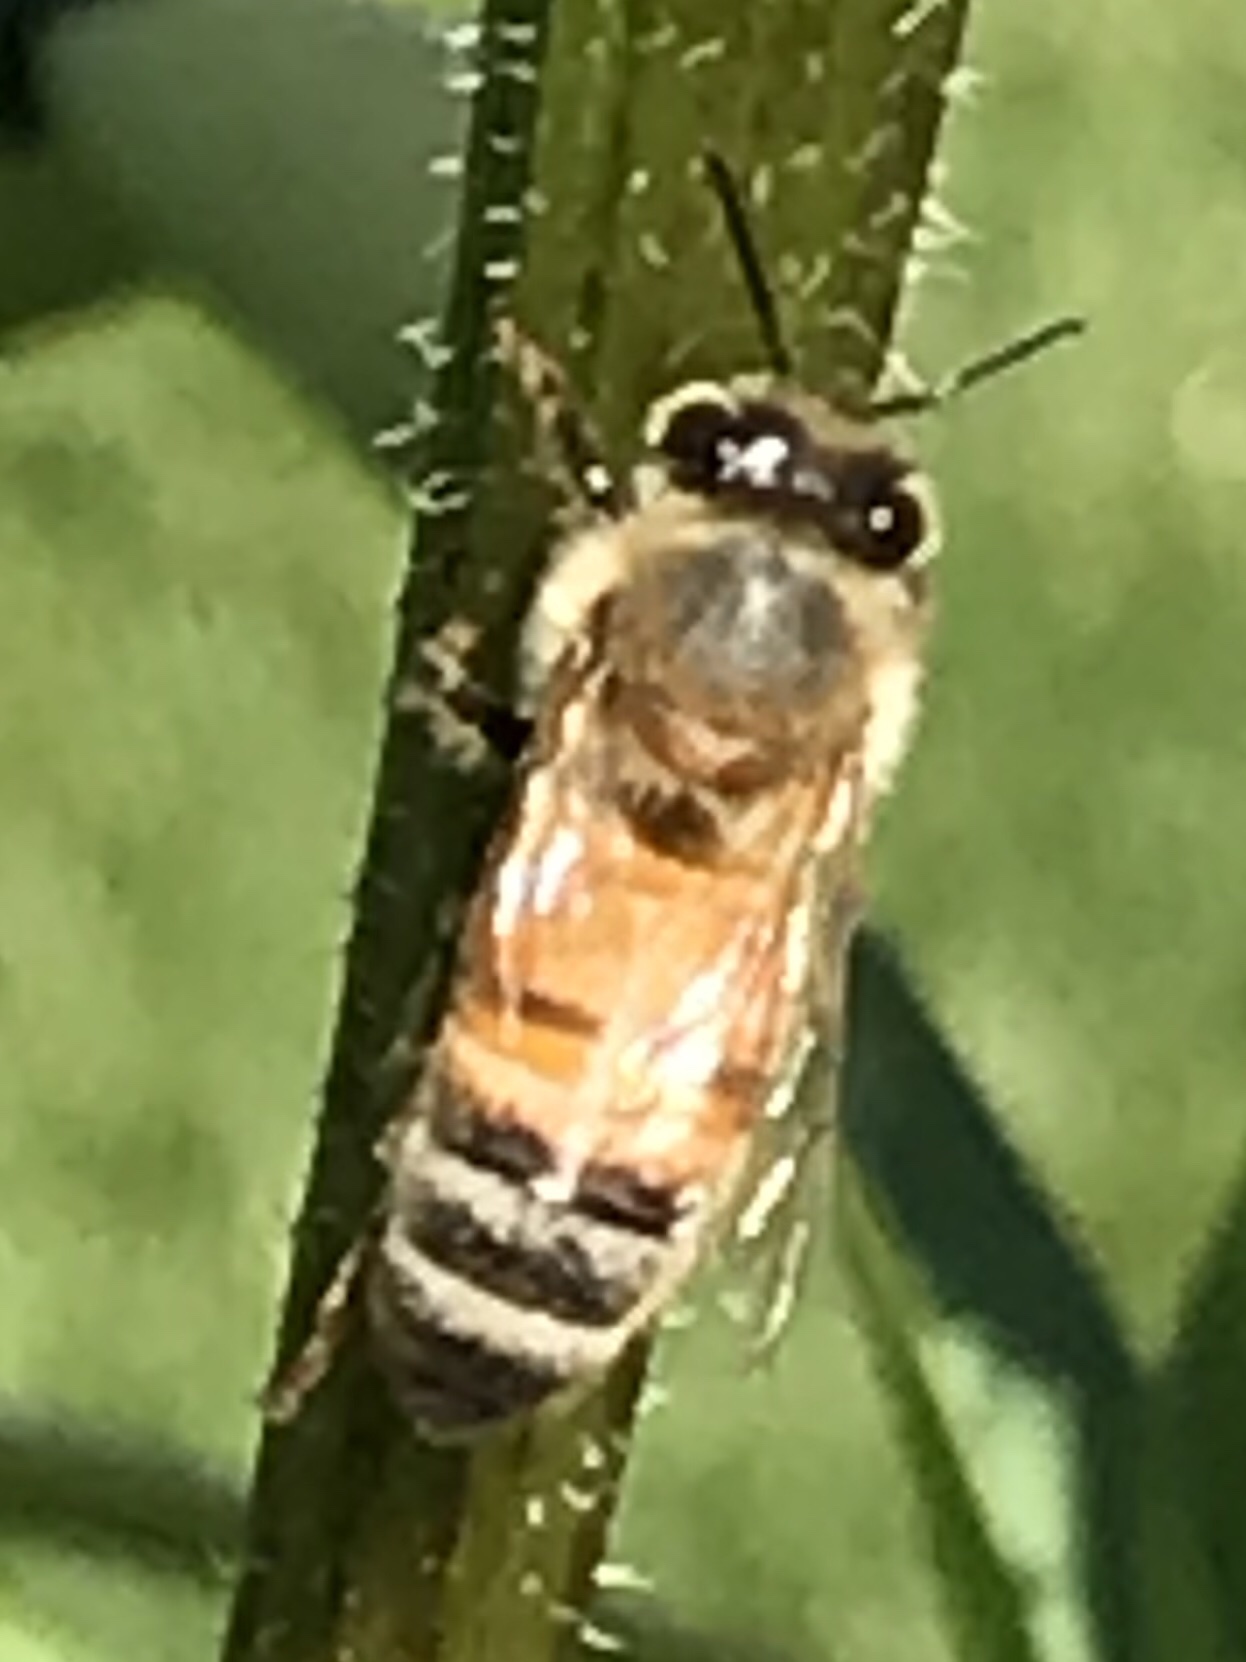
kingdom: Animalia
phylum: Arthropoda
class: Insecta
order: Hymenoptera
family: Apidae
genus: Apis
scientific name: Apis mellifera
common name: Honey bee
